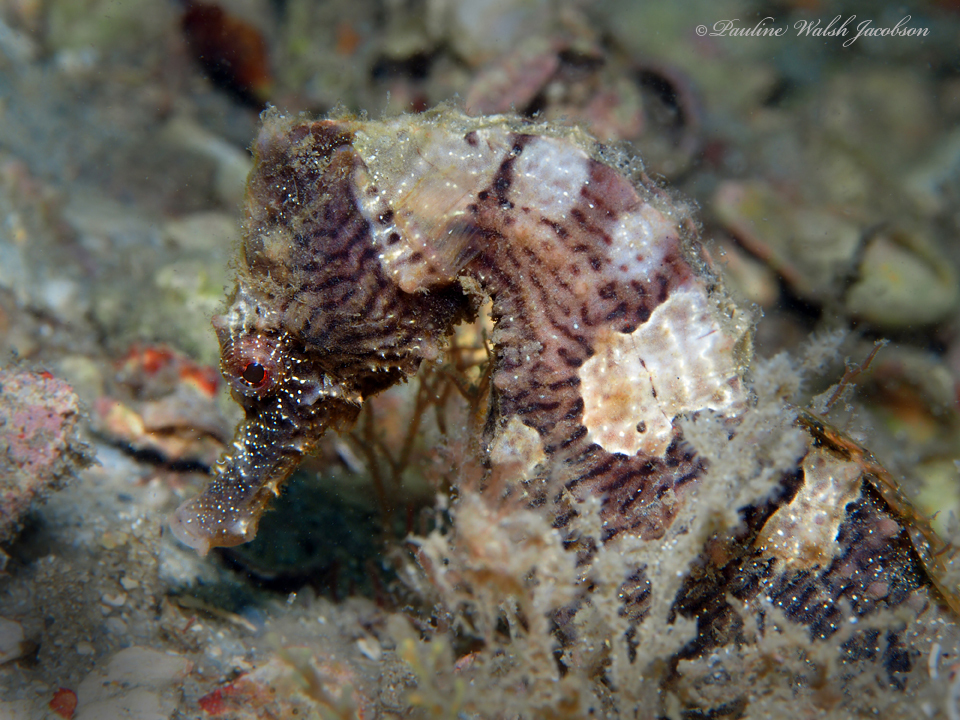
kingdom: Animalia
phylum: Chordata
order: Syngnathiformes
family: Syngnathidae
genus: Hippocampus
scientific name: Hippocampus erectus
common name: Lined seahorse
